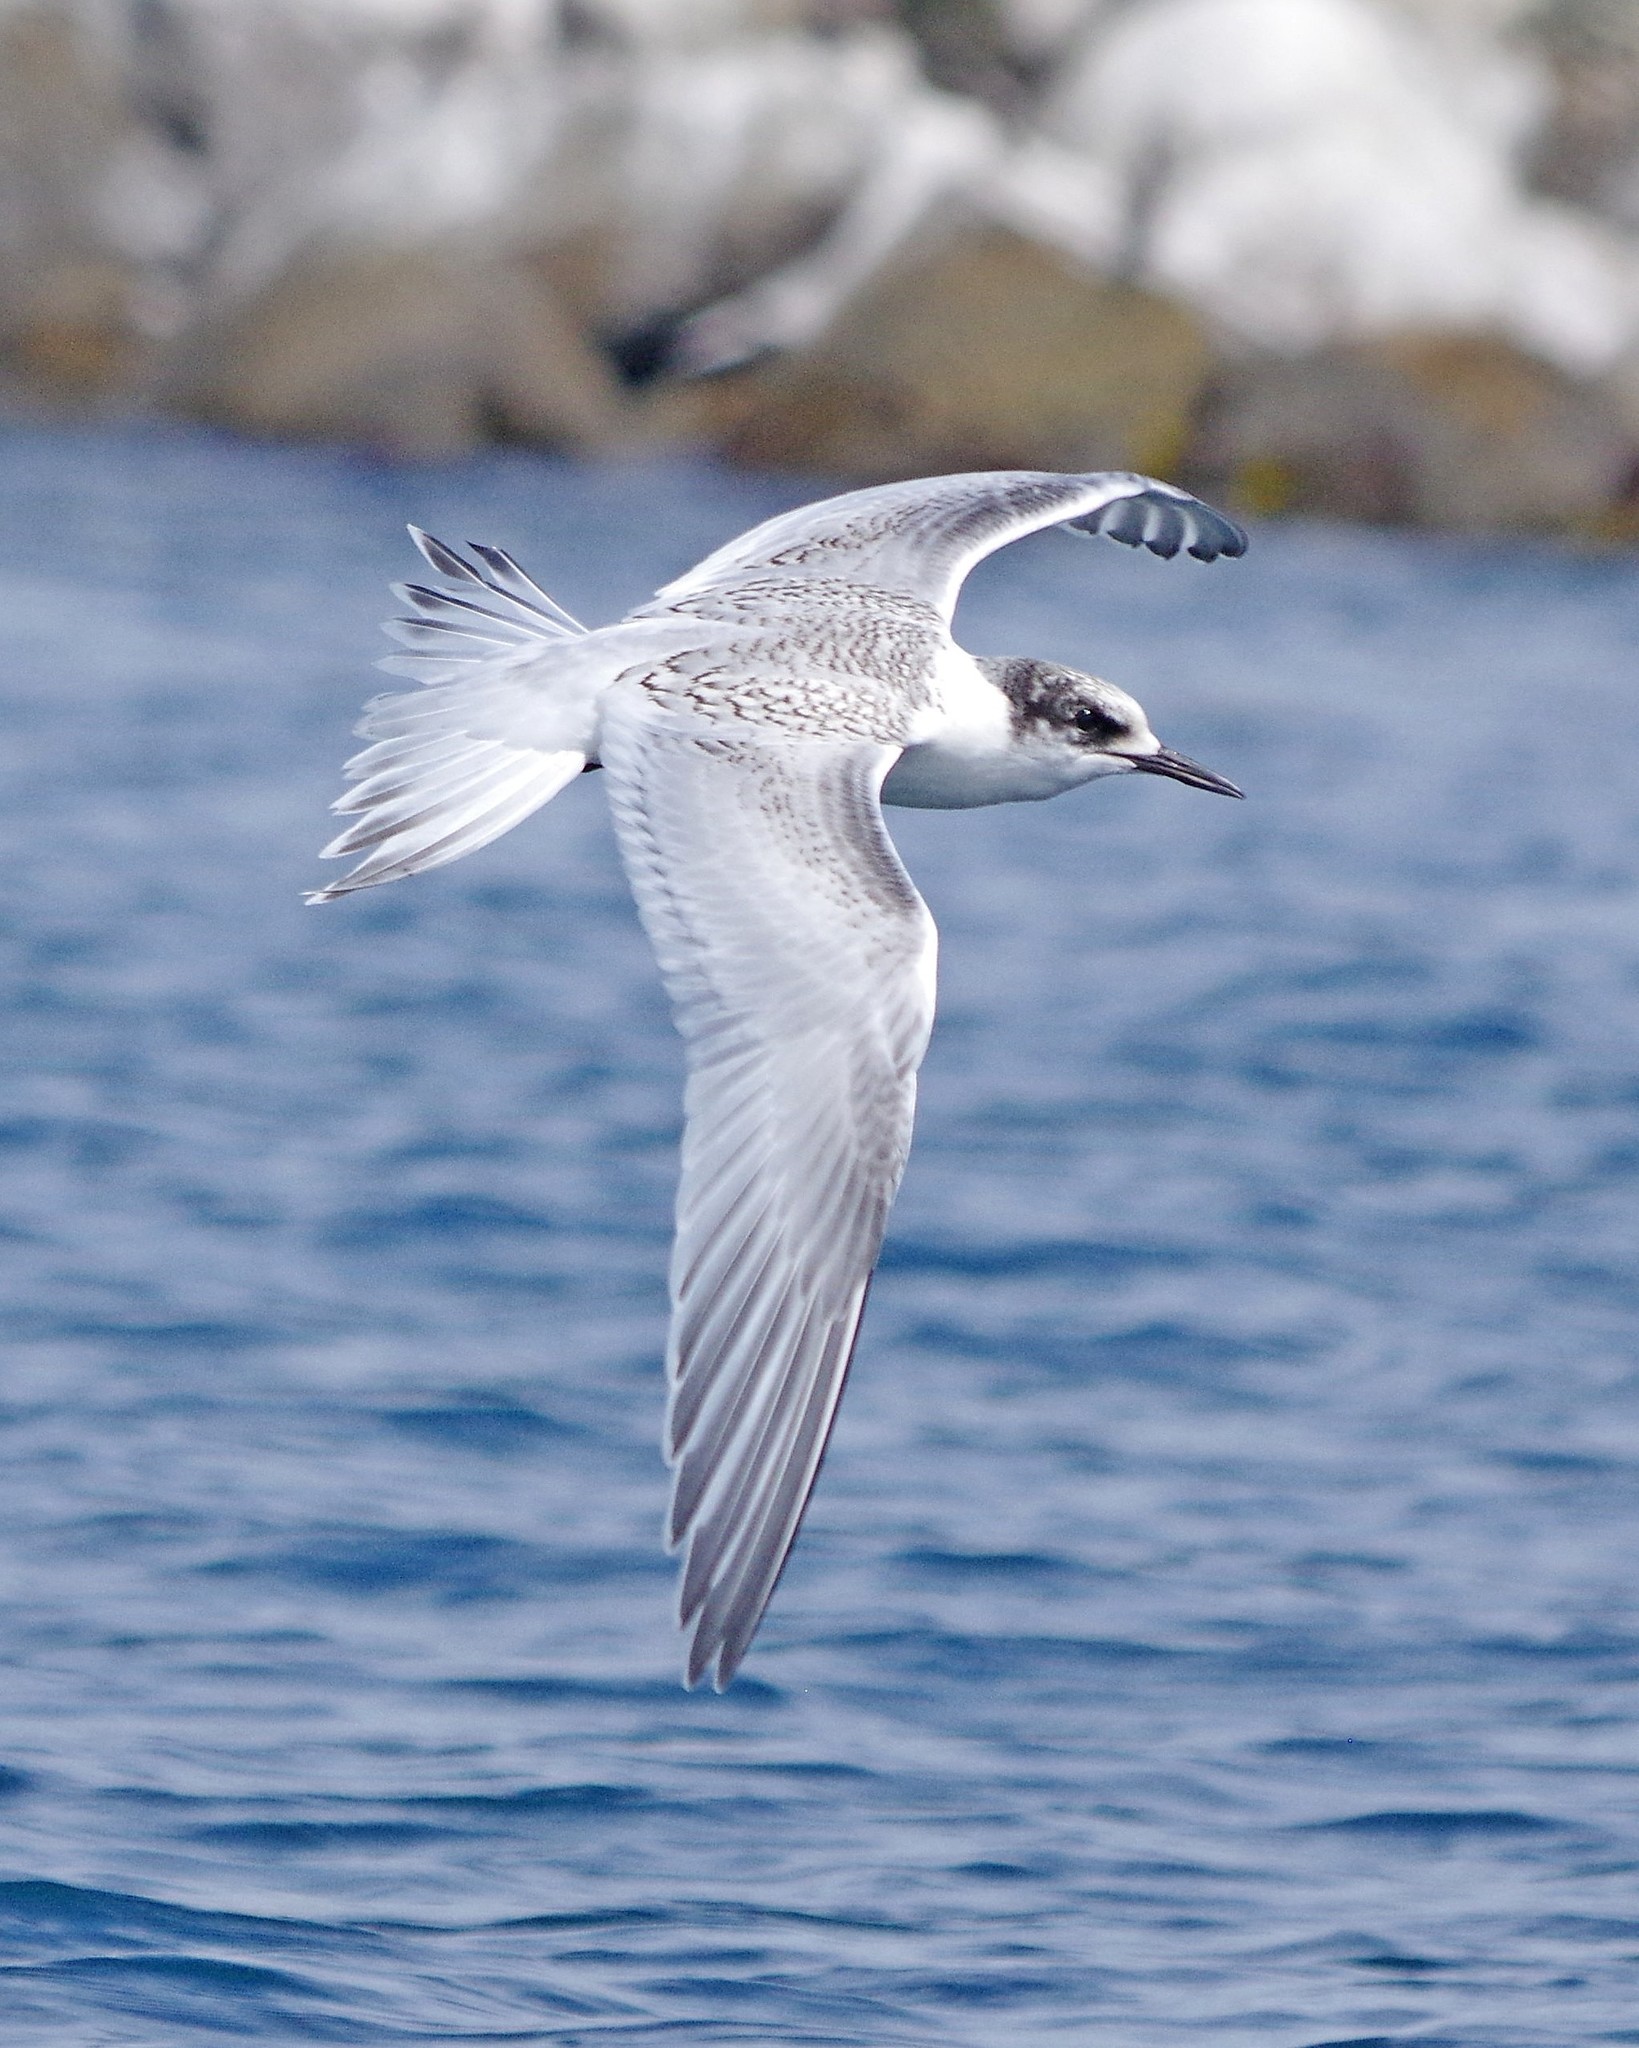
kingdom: Animalia
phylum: Chordata
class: Aves
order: Charadriiformes
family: Laridae
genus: Sterna
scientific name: Sterna striata
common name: White-fronted tern
